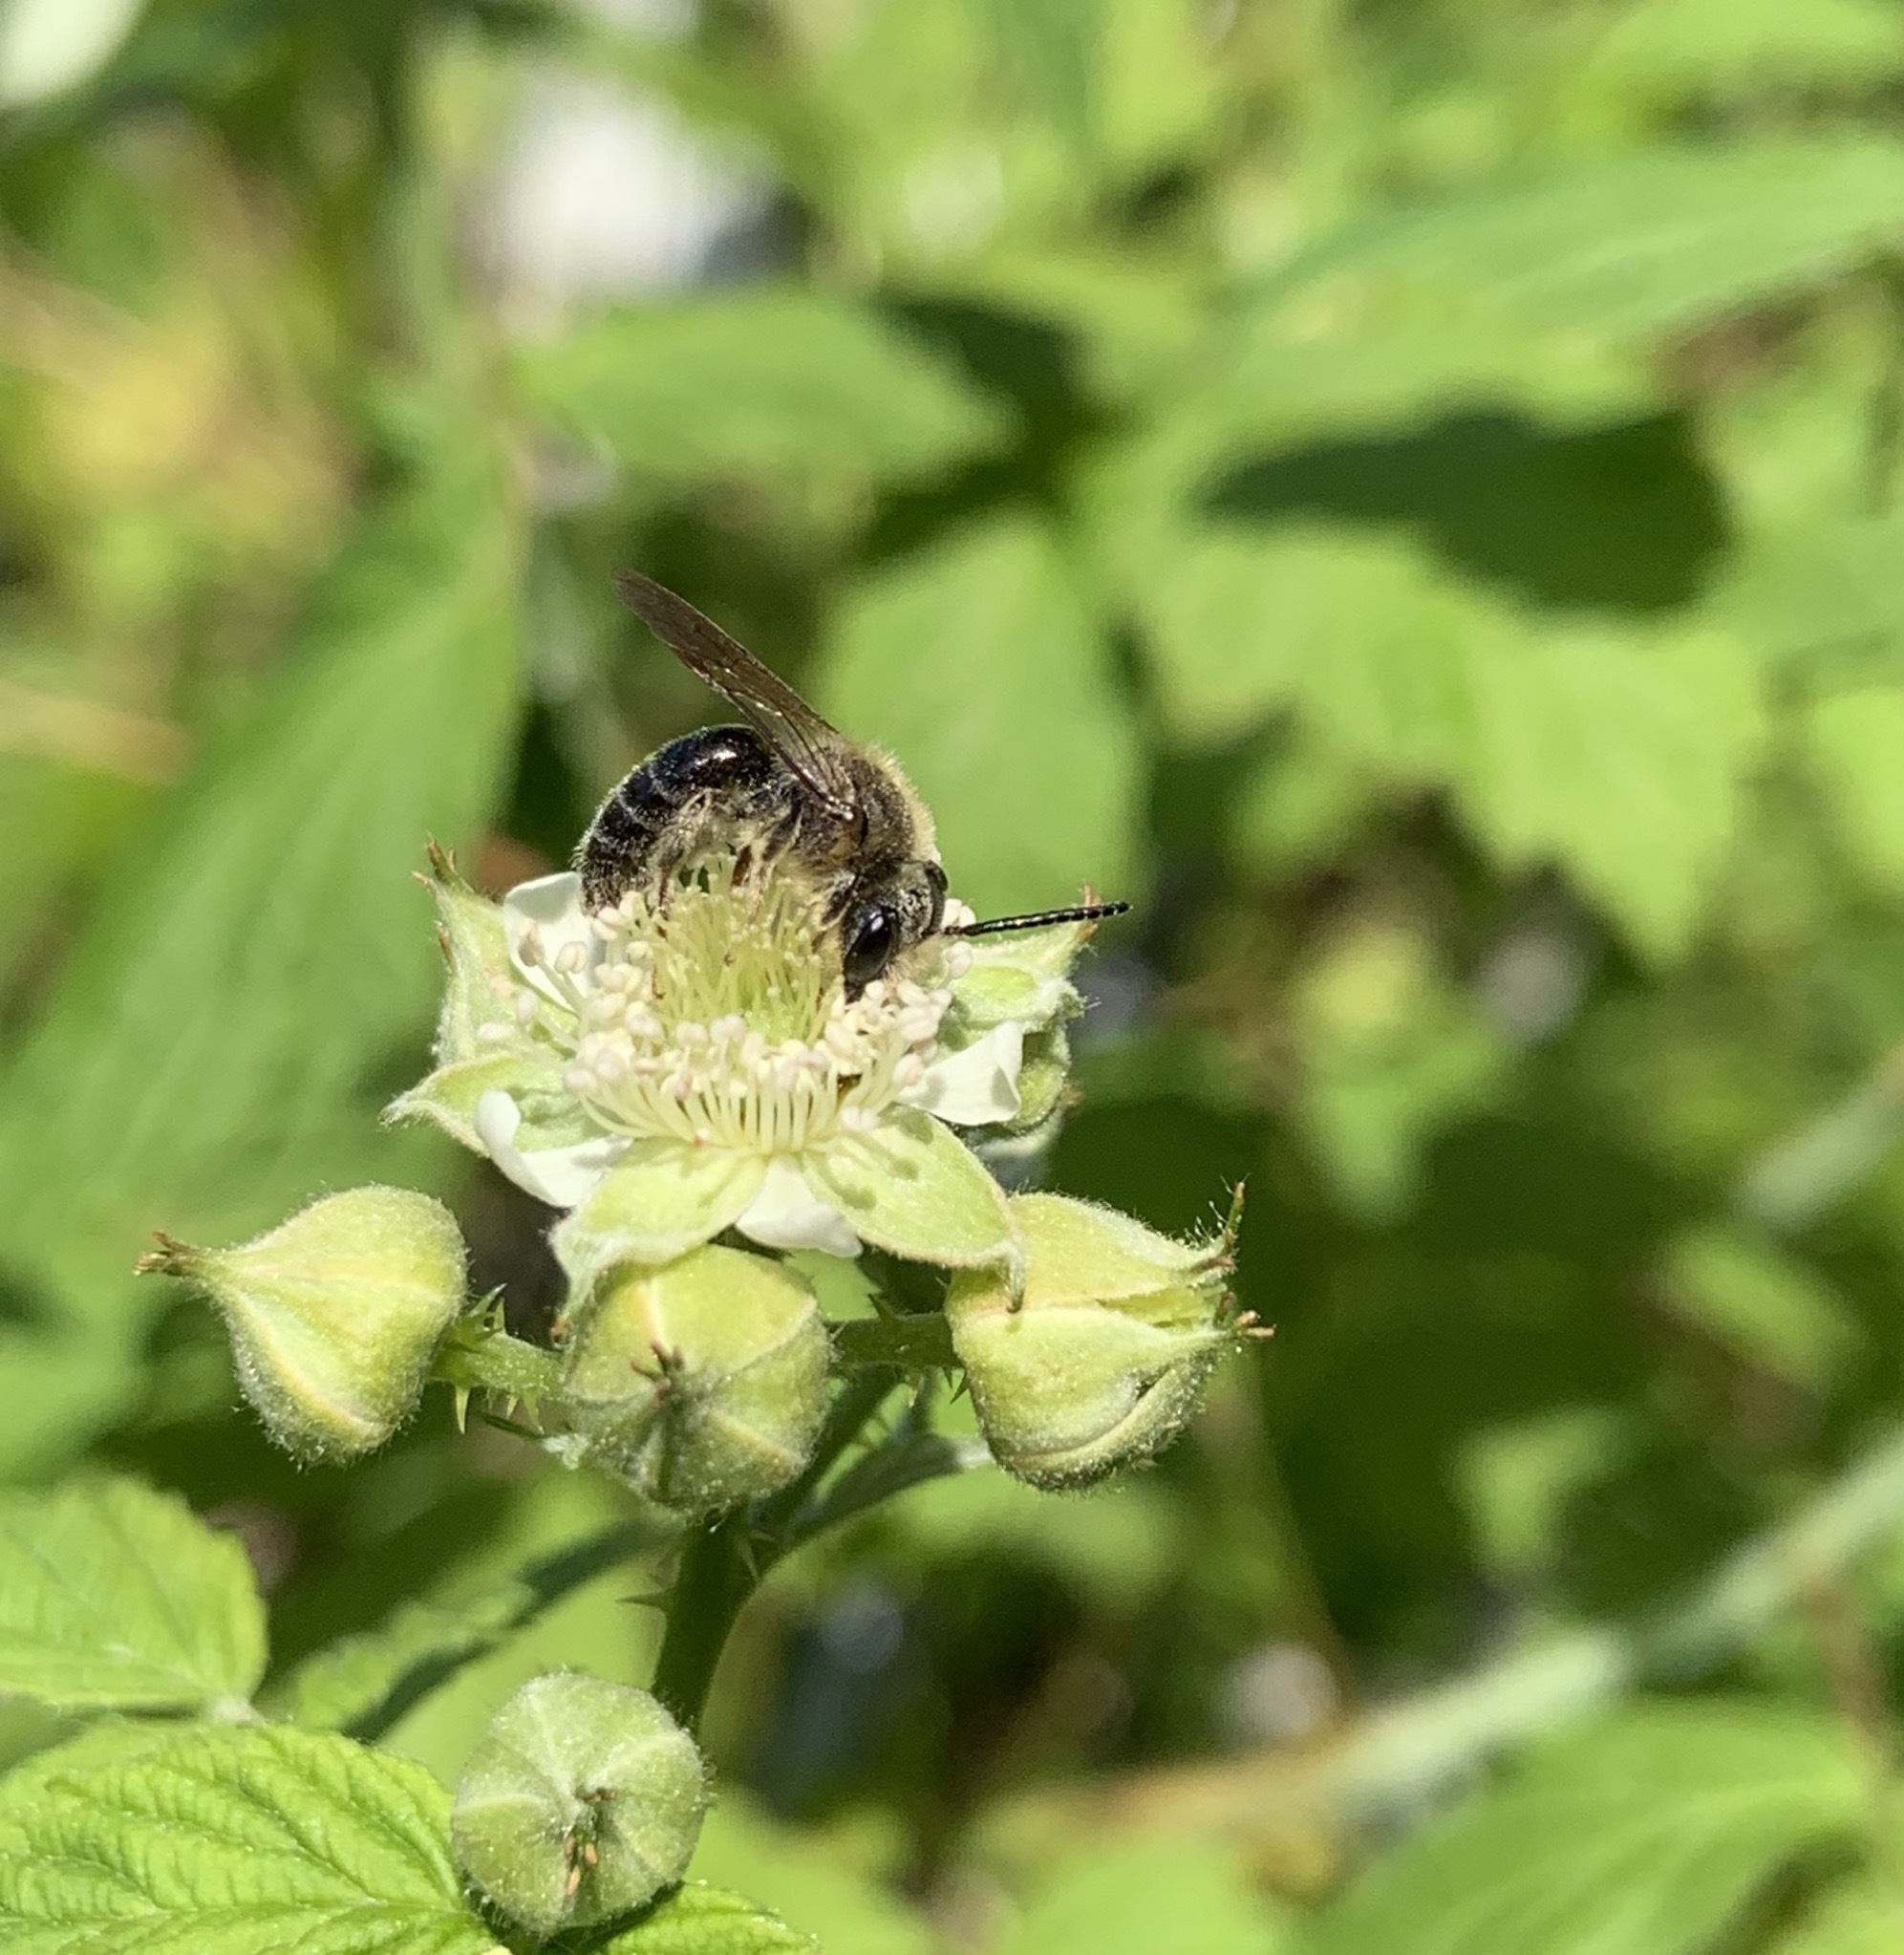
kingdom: Animalia
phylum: Arthropoda
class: Insecta
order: Hymenoptera
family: Andrenidae
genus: Andrena
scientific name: Andrena
